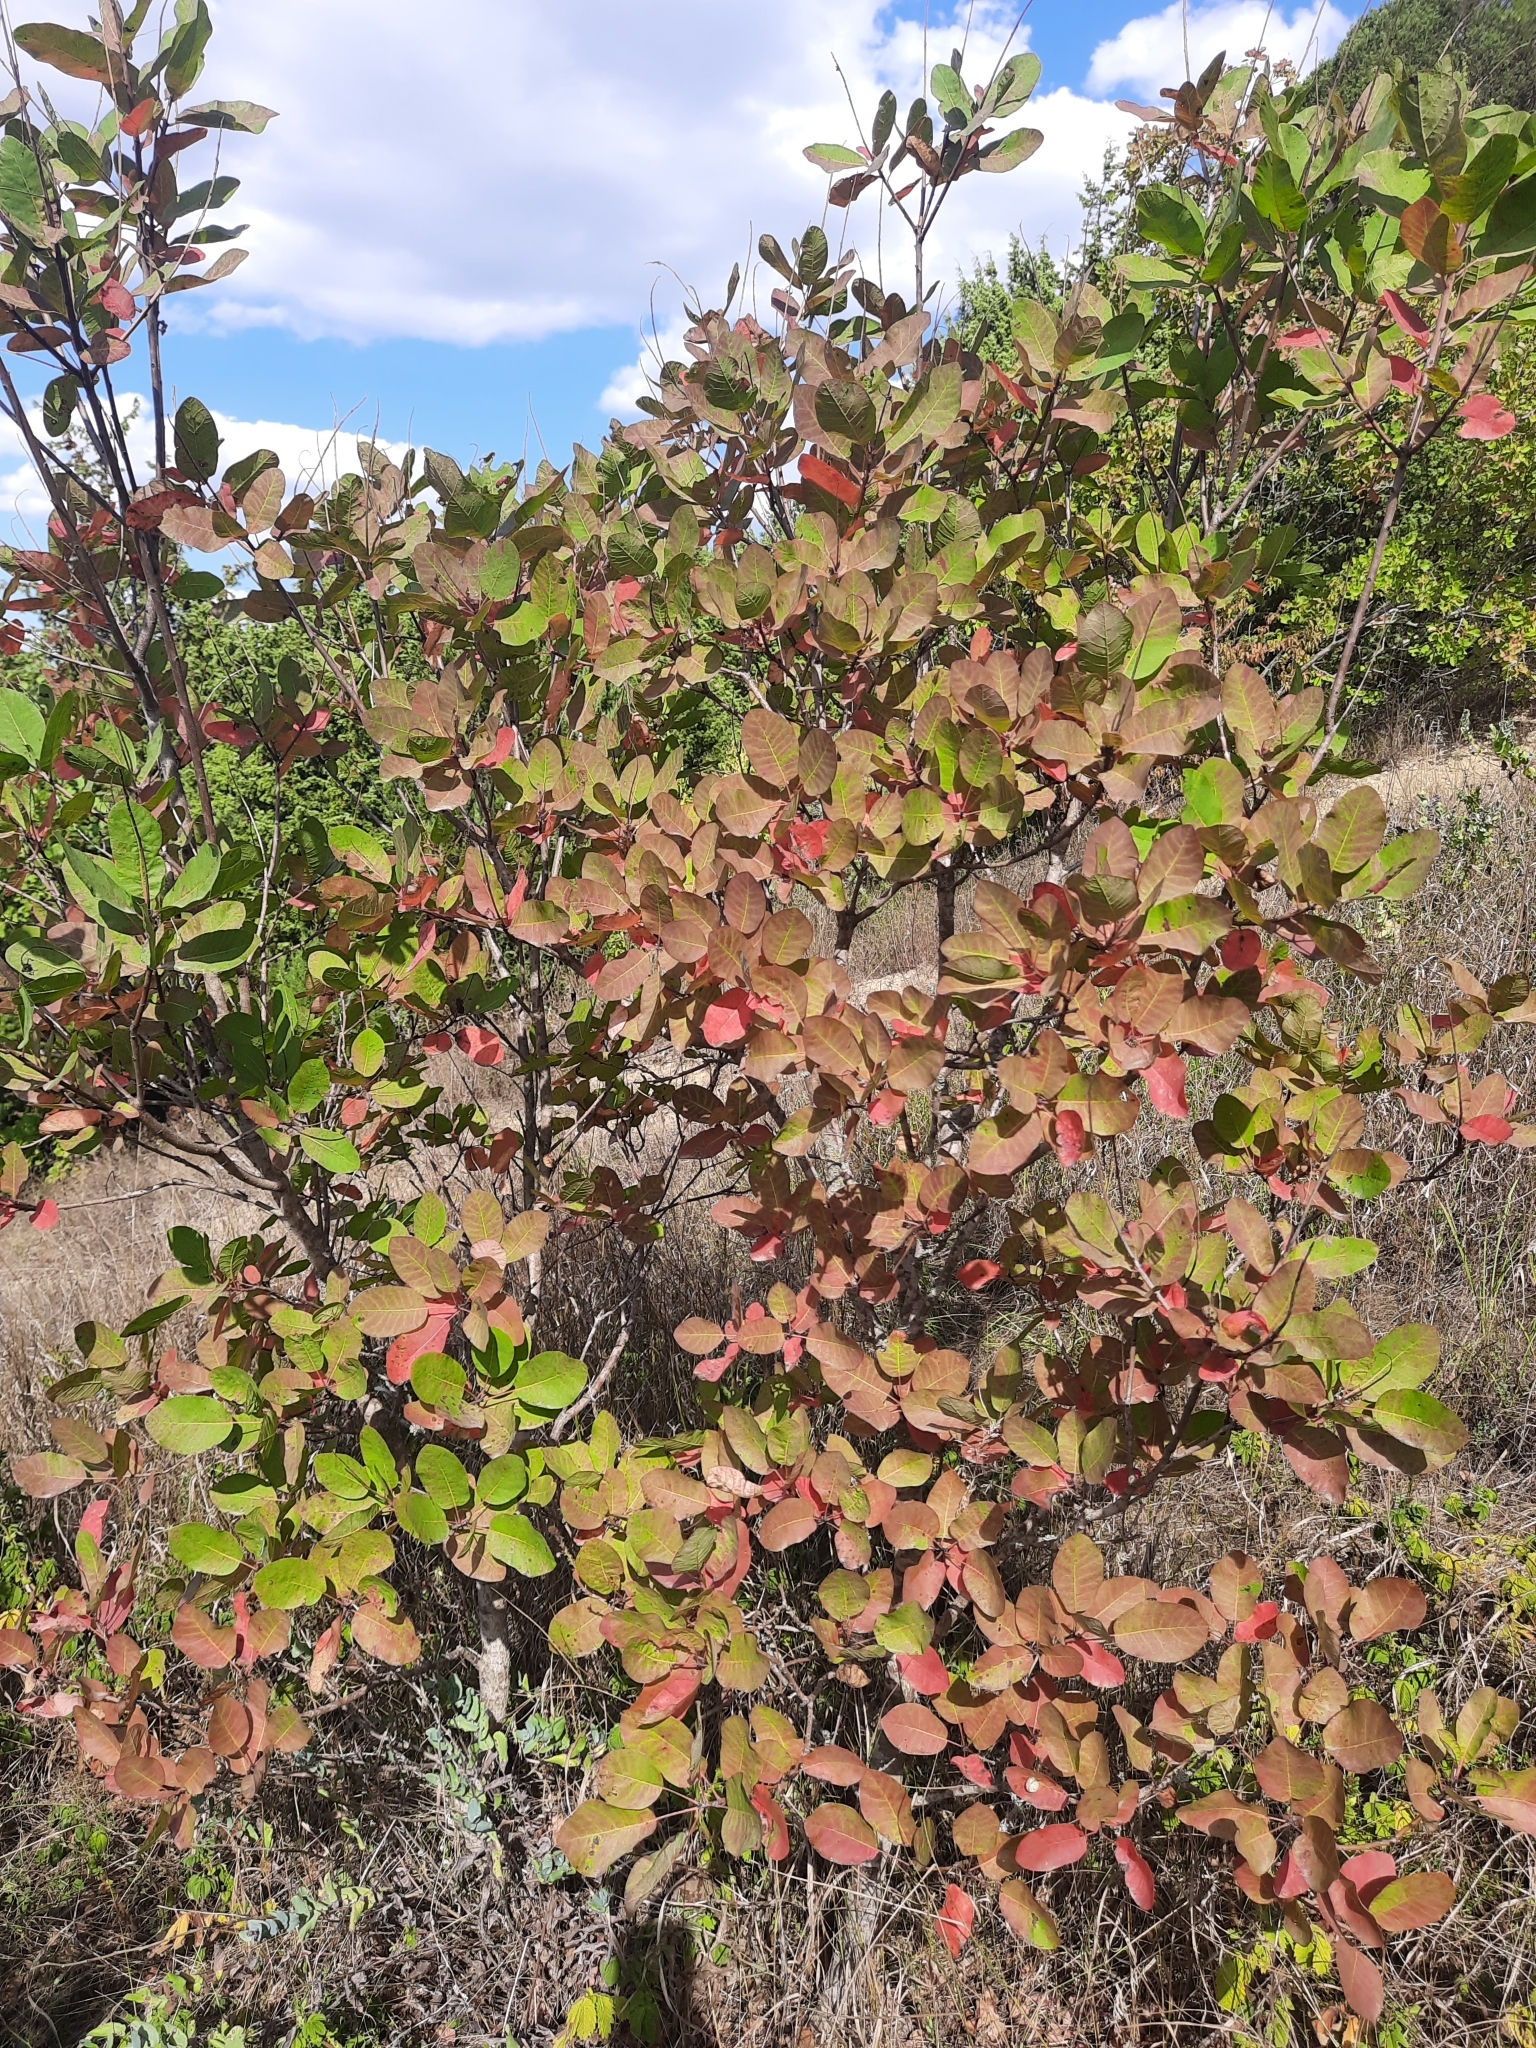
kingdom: Plantae
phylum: Tracheophyta
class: Magnoliopsida
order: Sapindales
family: Anacardiaceae
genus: Cotinus
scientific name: Cotinus coggygria
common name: Smoke-tree
